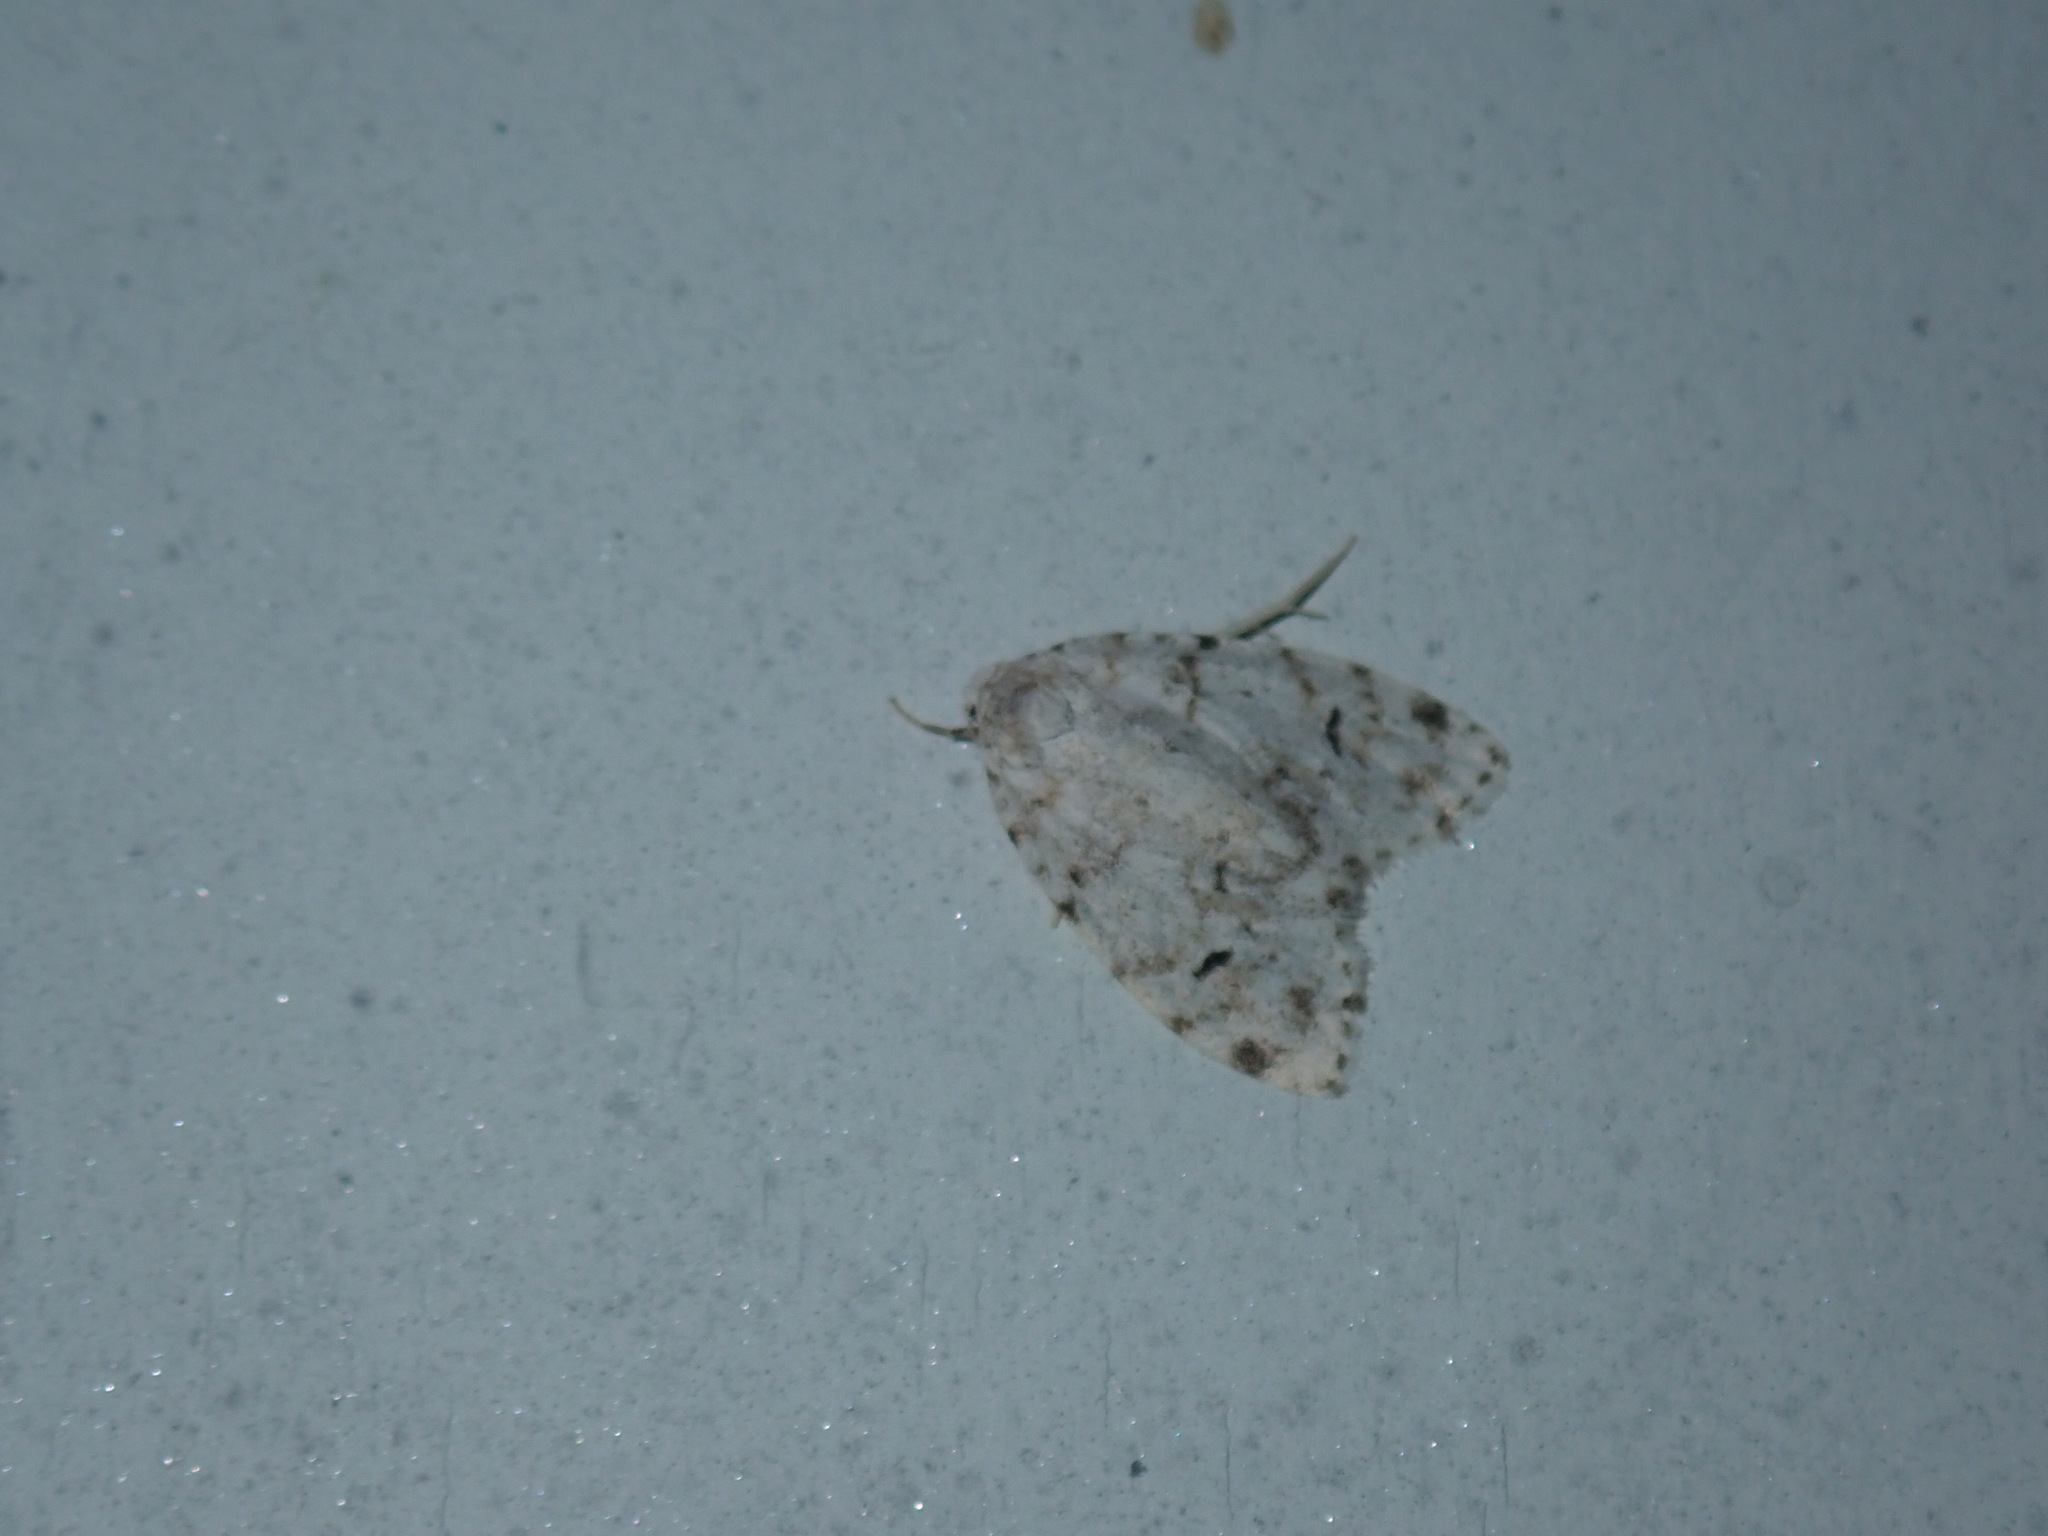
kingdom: Animalia
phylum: Arthropoda
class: Insecta
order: Lepidoptera
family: Erebidae
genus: Clemensia
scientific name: Clemensia albata
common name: Little white lichen moth
